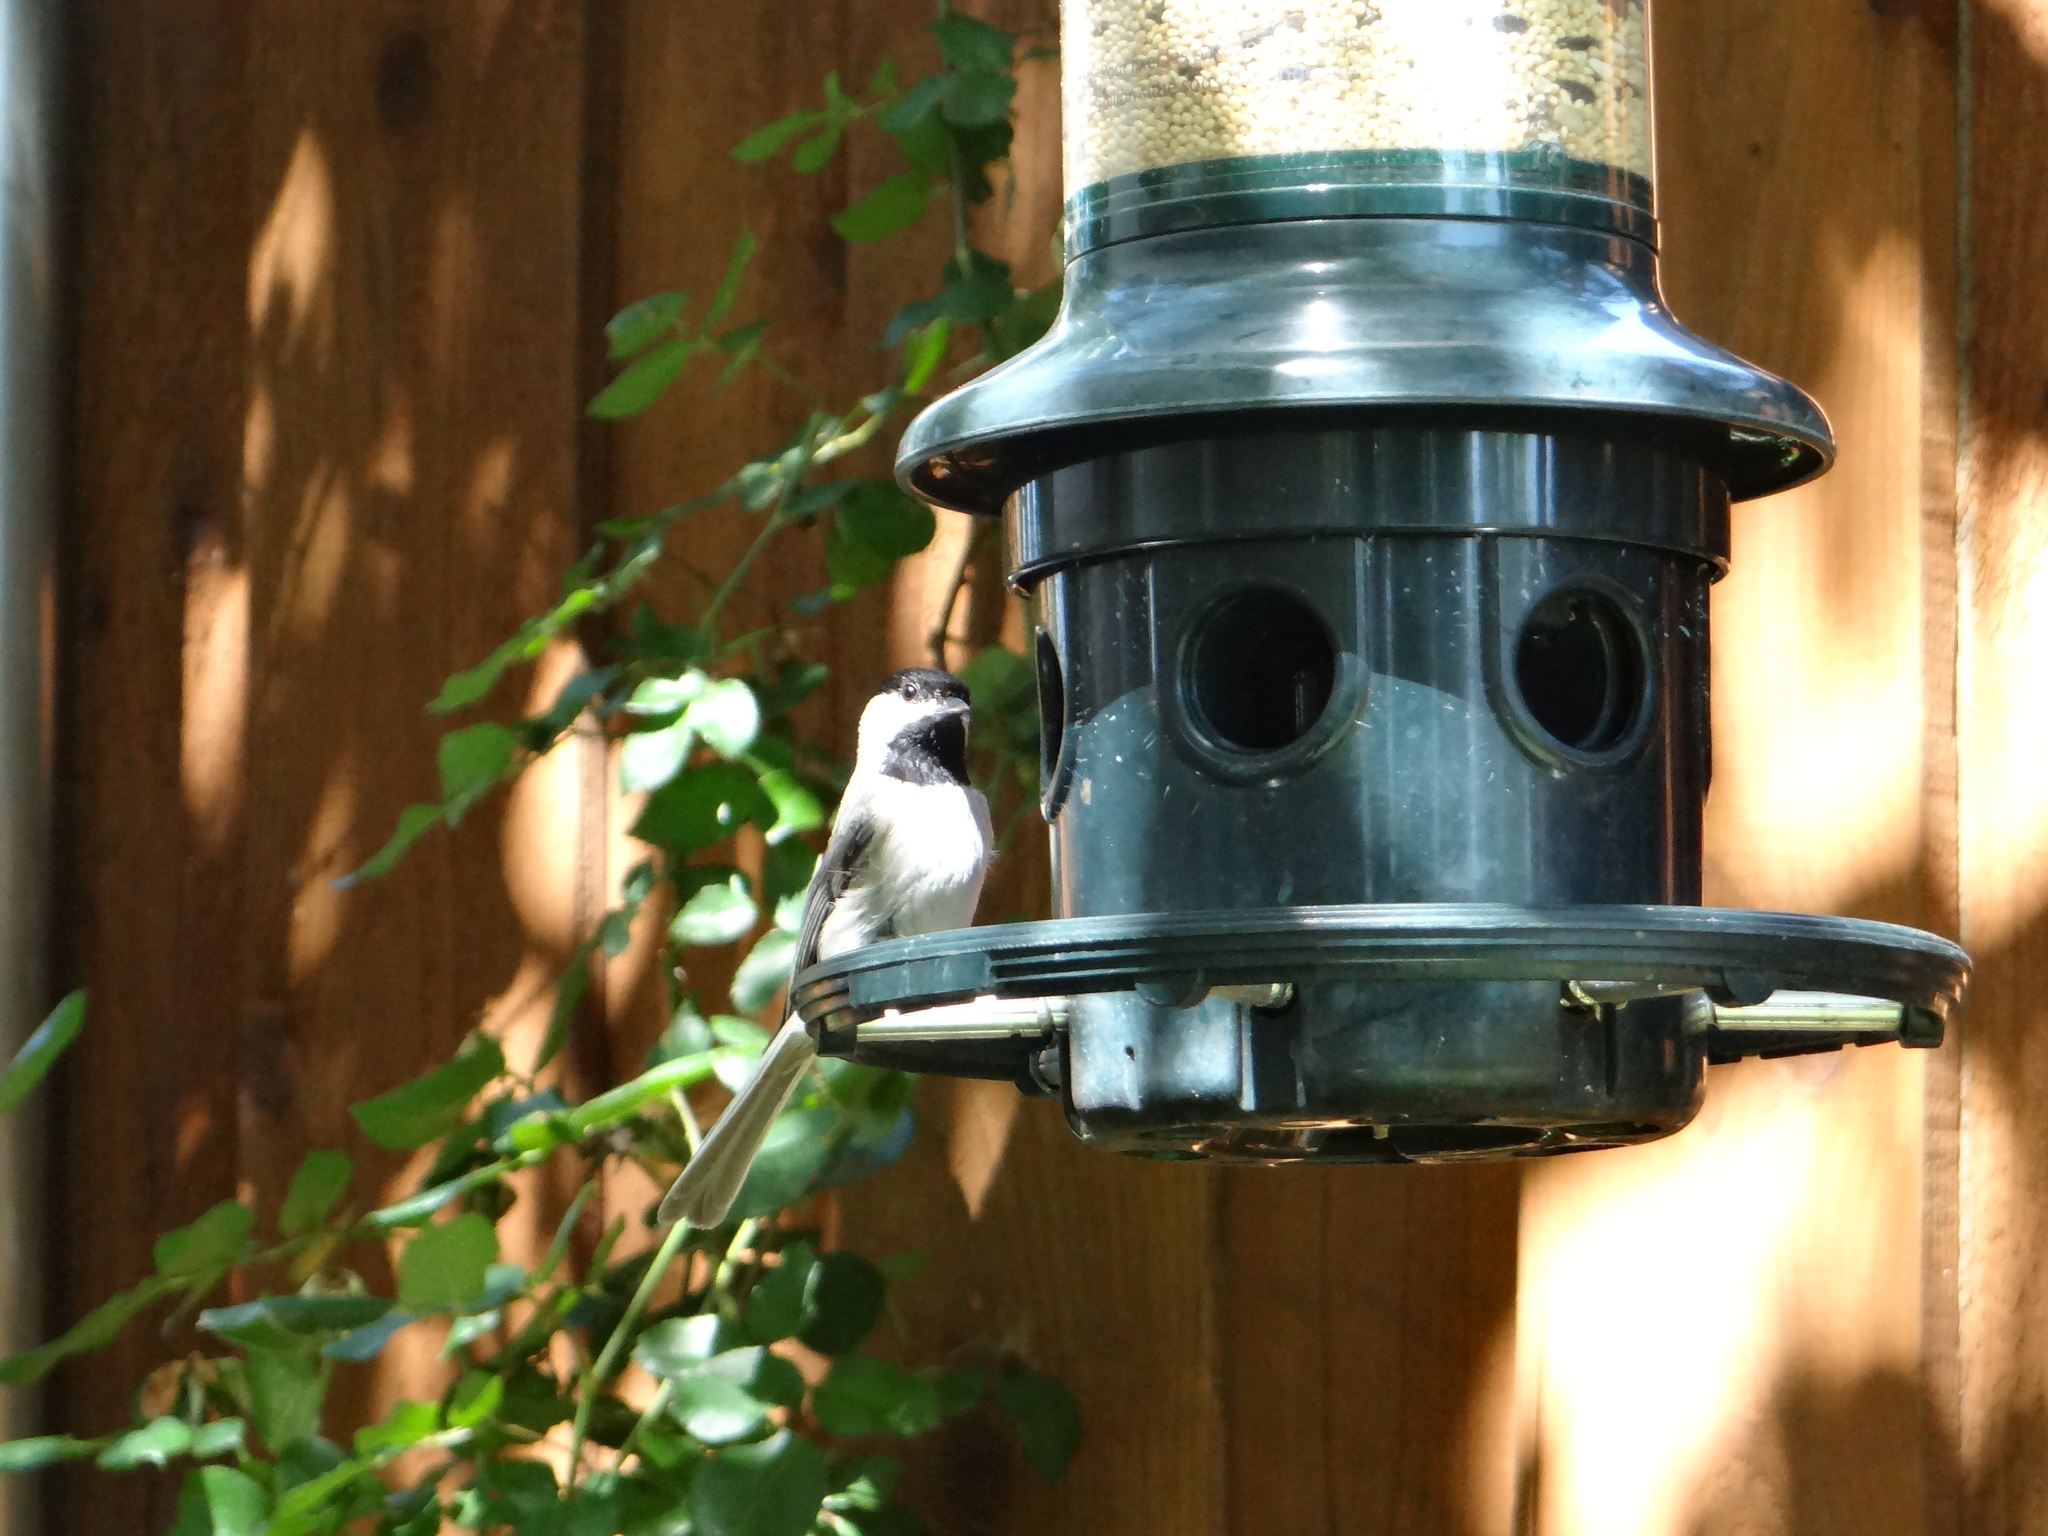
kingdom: Animalia
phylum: Chordata
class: Aves
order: Passeriformes
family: Paridae
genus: Poecile
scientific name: Poecile carolinensis
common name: Carolina chickadee
